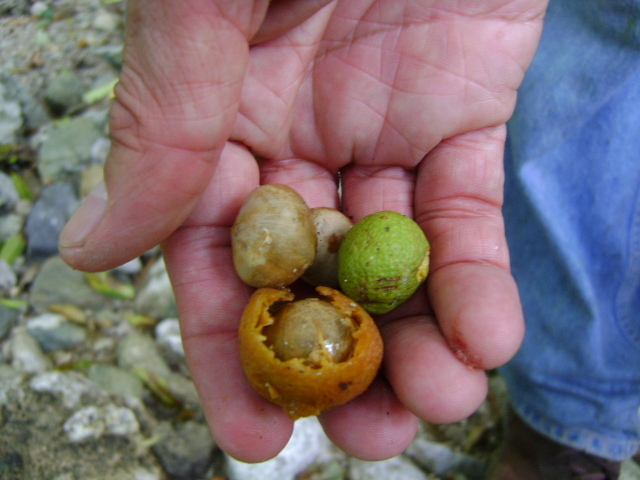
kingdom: Plantae
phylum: Tracheophyta
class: Magnoliopsida
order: Rosales
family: Moraceae
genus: Brosimum
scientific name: Brosimum alicastrum
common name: Breadnut
